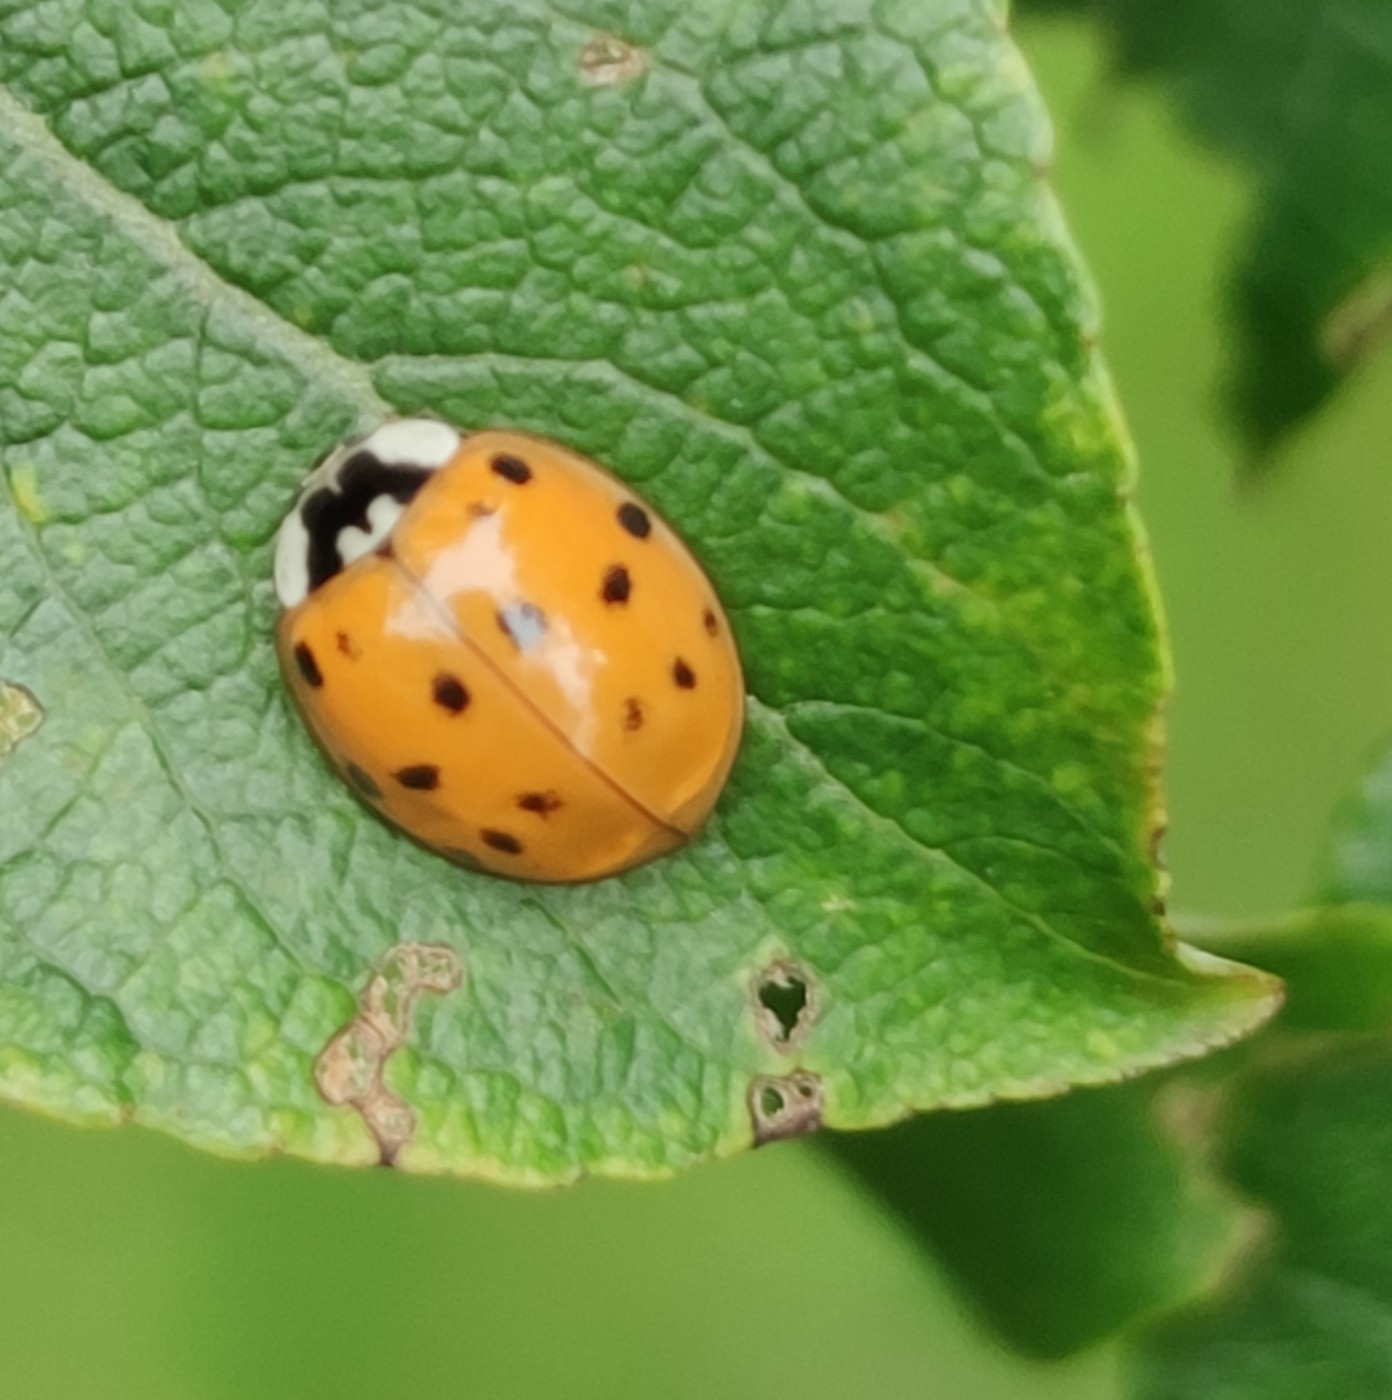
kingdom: Animalia
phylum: Arthropoda
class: Insecta
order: Coleoptera
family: Coccinellidae
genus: Harmonia
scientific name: Harmonia axyridis
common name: Harlequin ladybird
